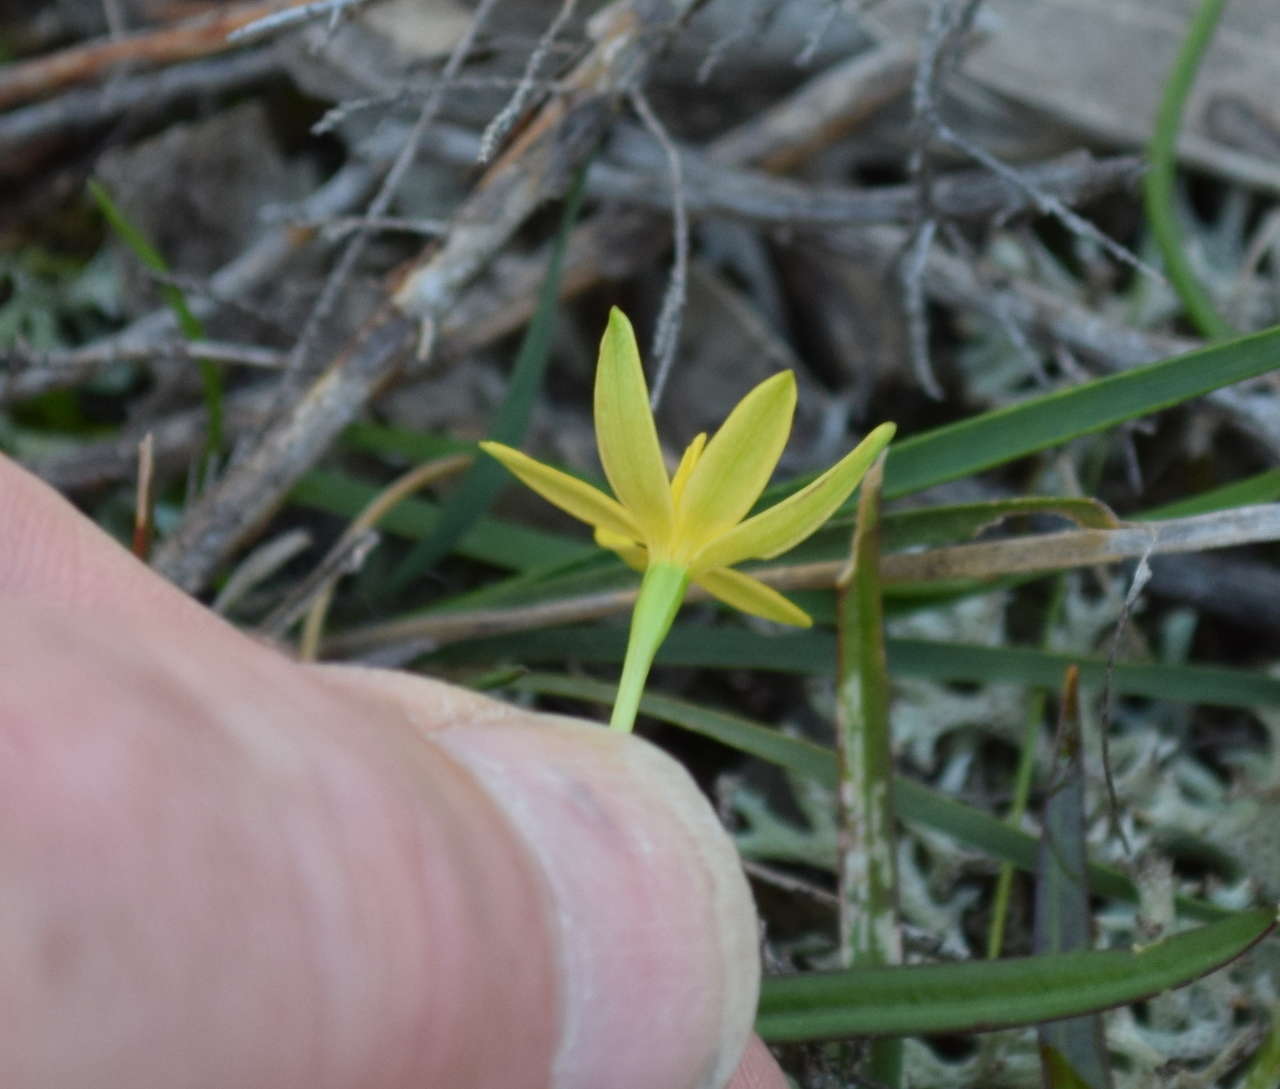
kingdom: Plantae
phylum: Tracheophyta
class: Liliopsida
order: Asparagales
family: Hypoxidaceae
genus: Pauridia
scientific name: Pauridia vaginata
